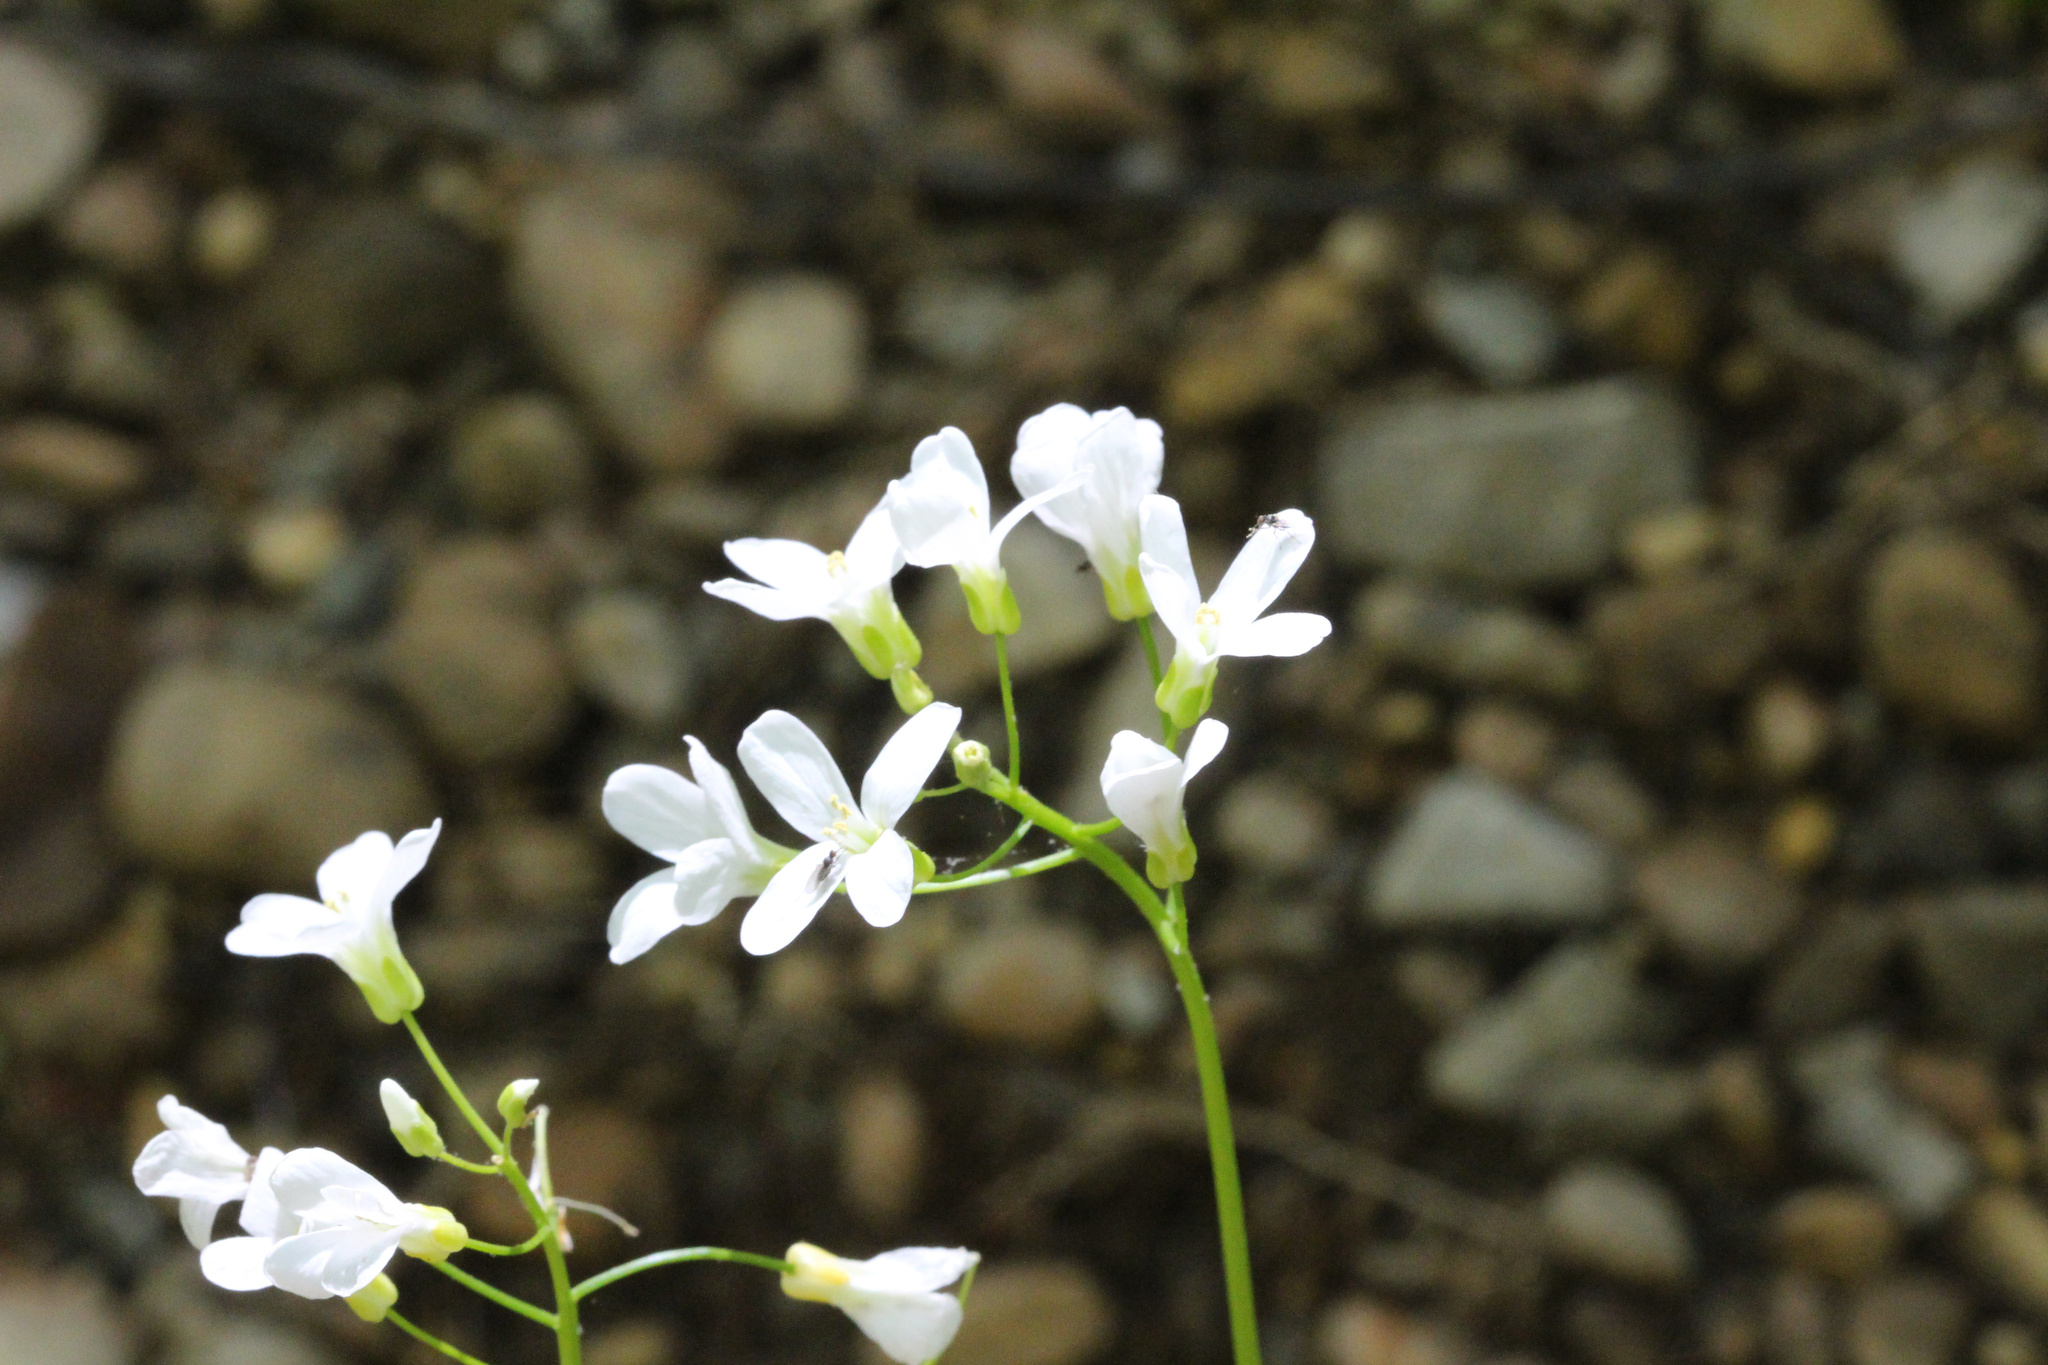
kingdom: Plantae
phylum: Tracheophyta
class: Magnoliopsida
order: Brassicales
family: Brassicaceae
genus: Cardamine
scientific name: Cardamine bulbosa
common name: Spring cress
